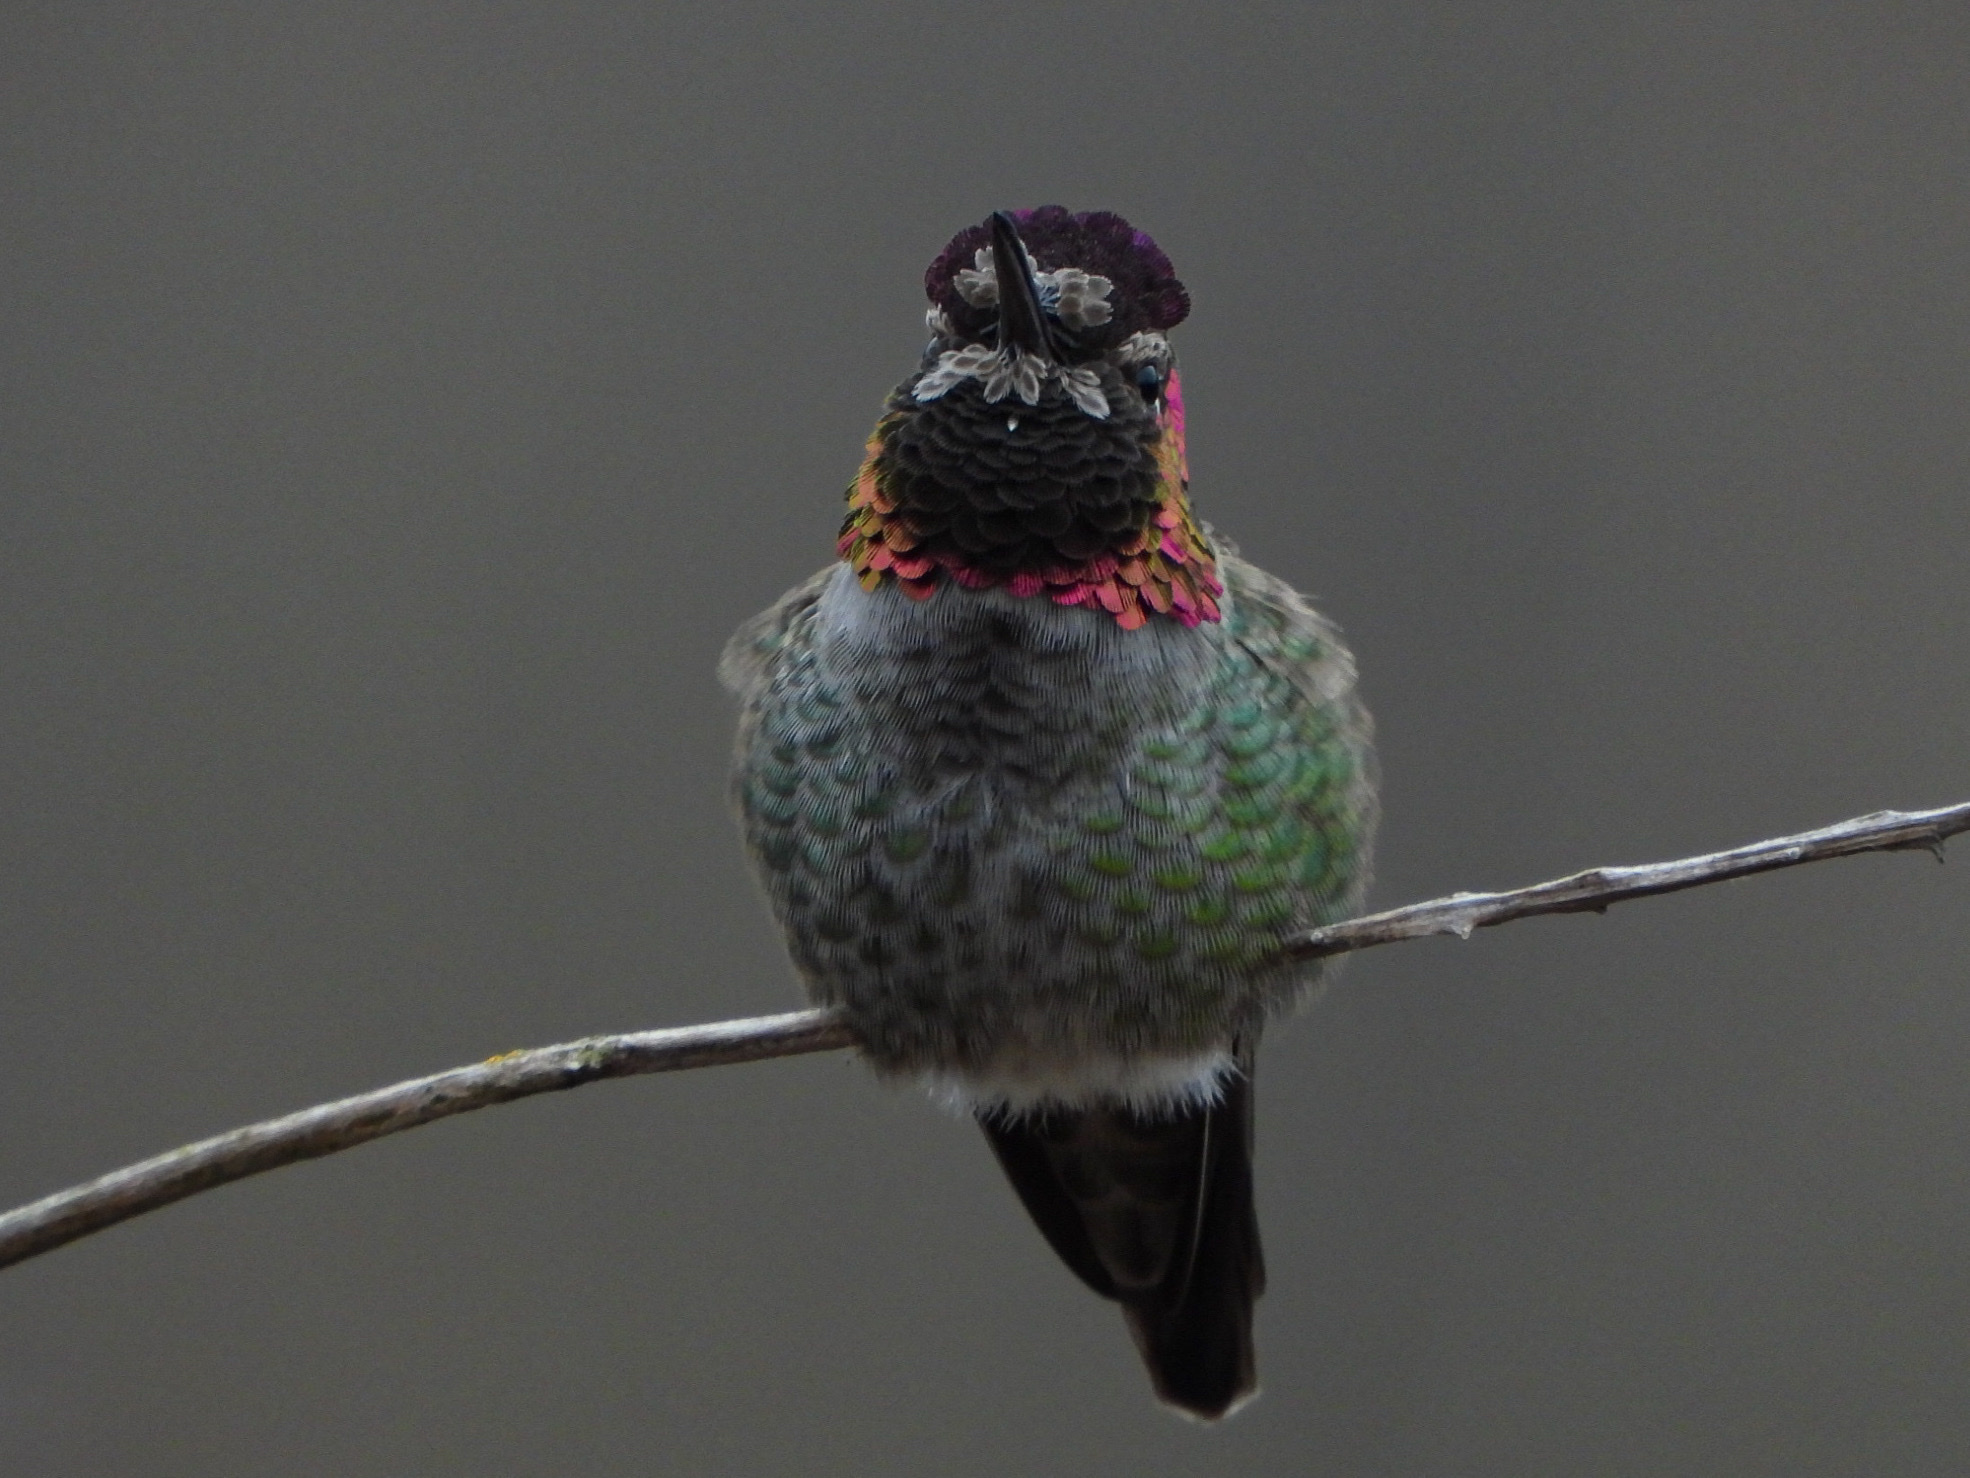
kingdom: Animalia
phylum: Chordata
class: Aves
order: Apodiformes
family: Trochilidae
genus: Calypte
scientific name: Calypte anna
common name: Anna's hummingbird
